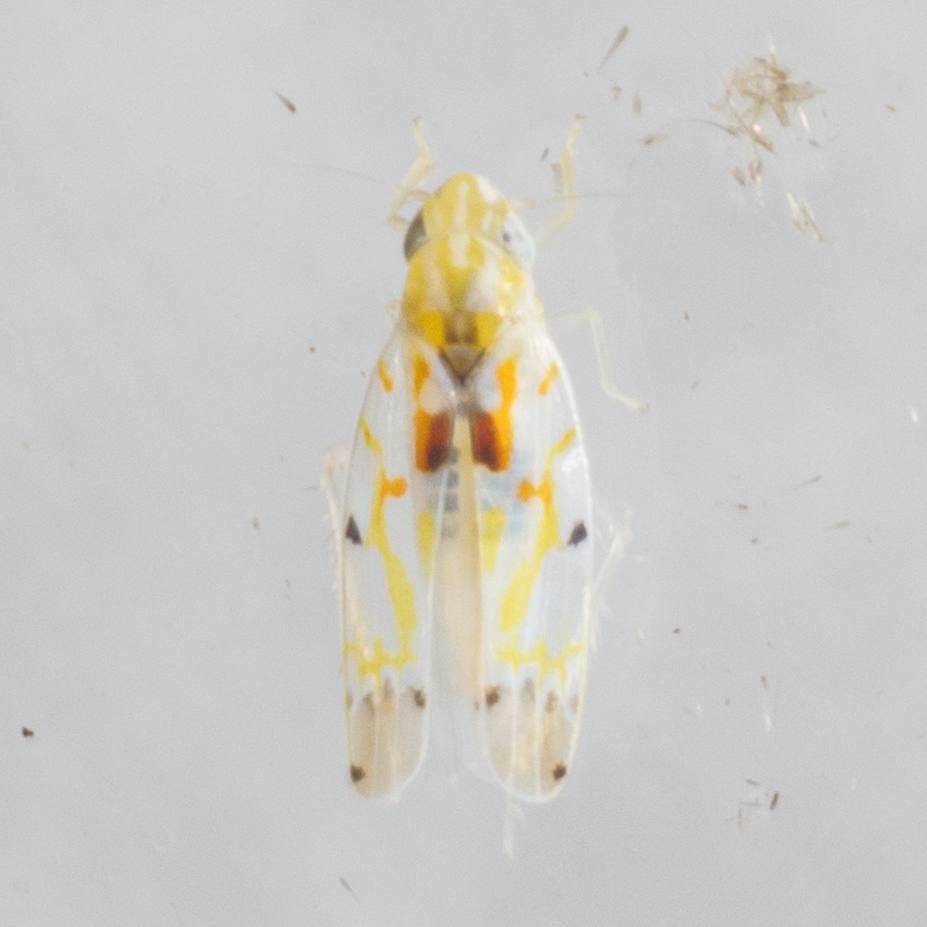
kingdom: Animalia
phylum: Arthropoda
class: Insecta
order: Hemiptera
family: Cicadellidae
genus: Erythroneura
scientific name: Erythroneura octonotata
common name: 8-spotted leafhopper
